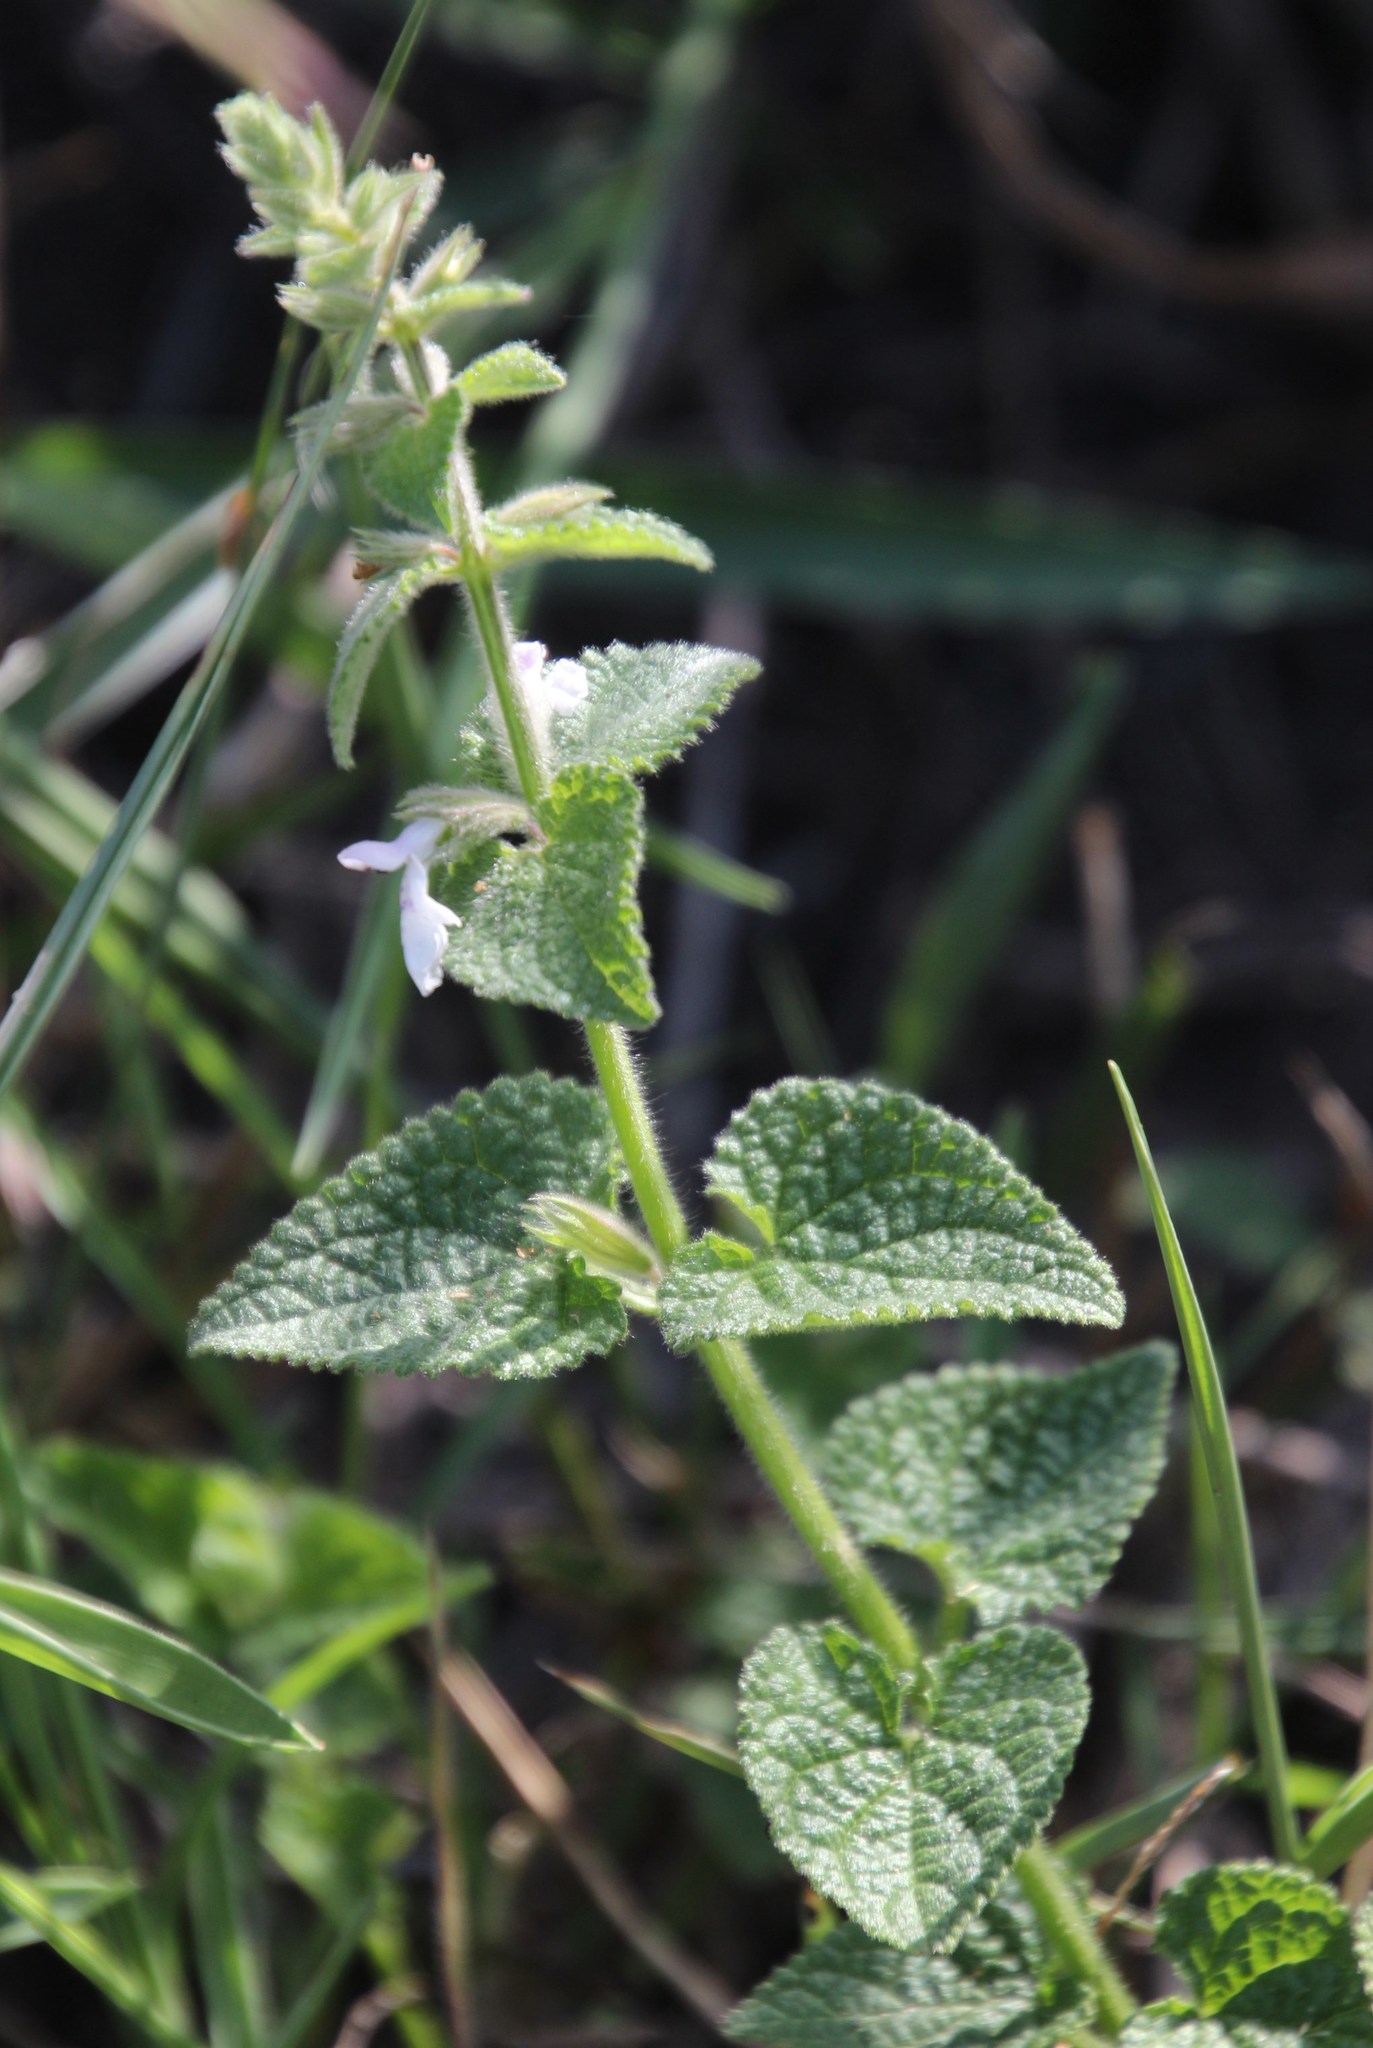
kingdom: Plantae
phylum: Tracheophyta
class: Magnoliopsida
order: Lamiales
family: Lamiaceae
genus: Stachys
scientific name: Stachys aethiopica
